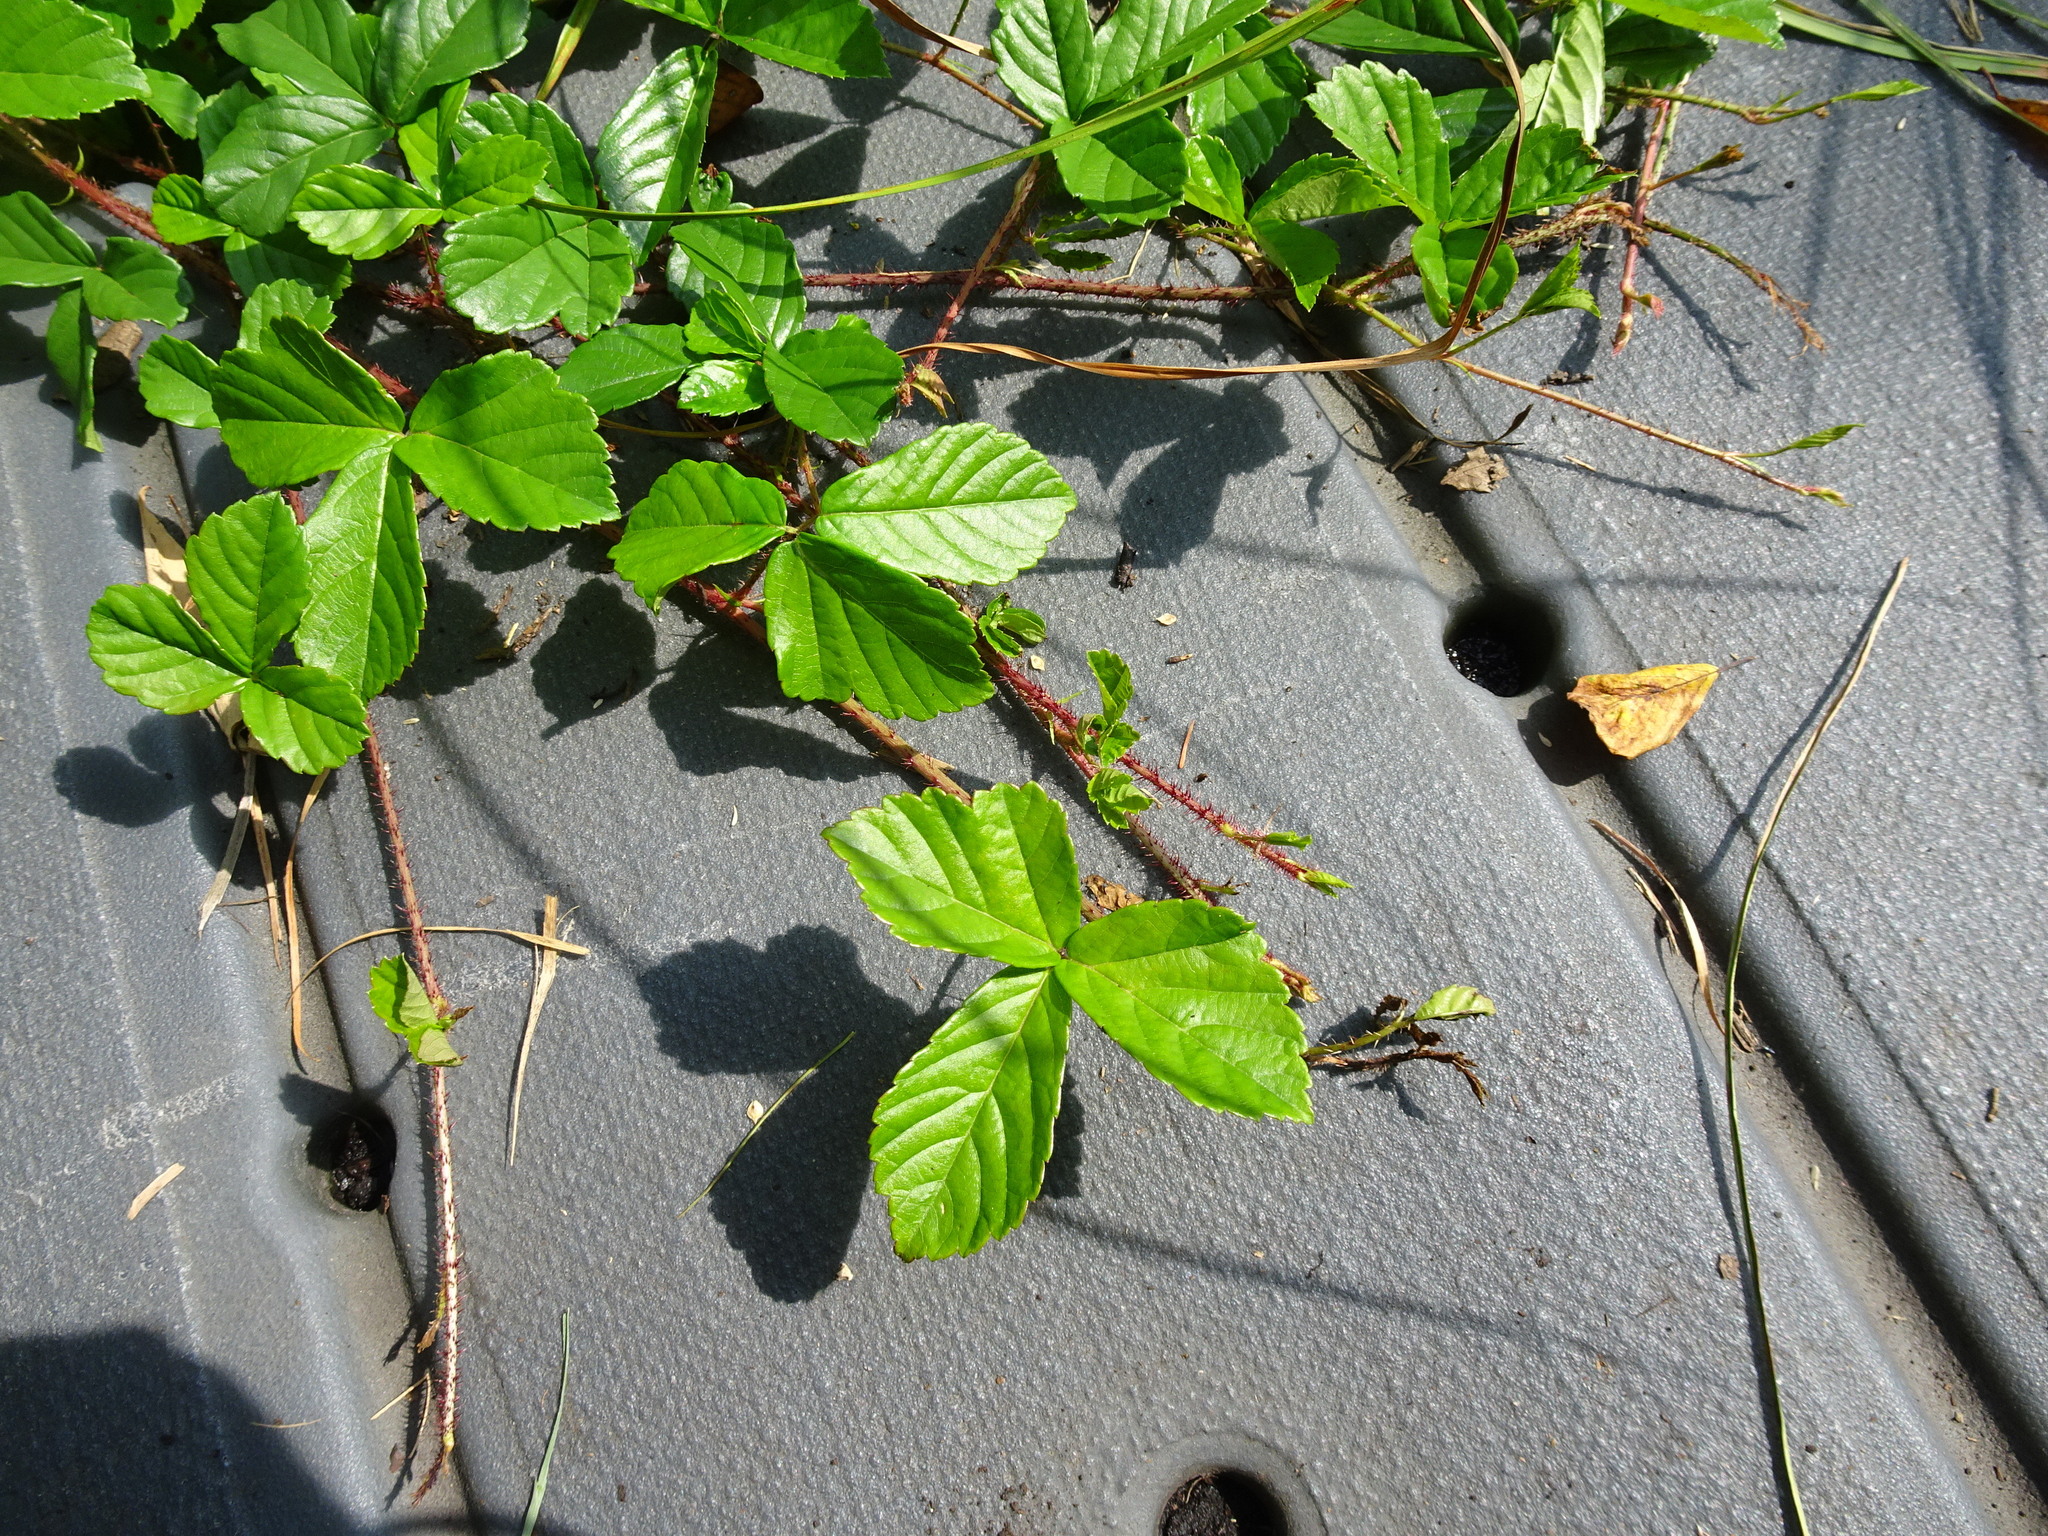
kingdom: Plantae
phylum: Tracheophyta
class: Magnoliopsida
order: Rosales
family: Rosaceae
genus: Rubus
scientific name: Rubus hispidus
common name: Running blackberry
